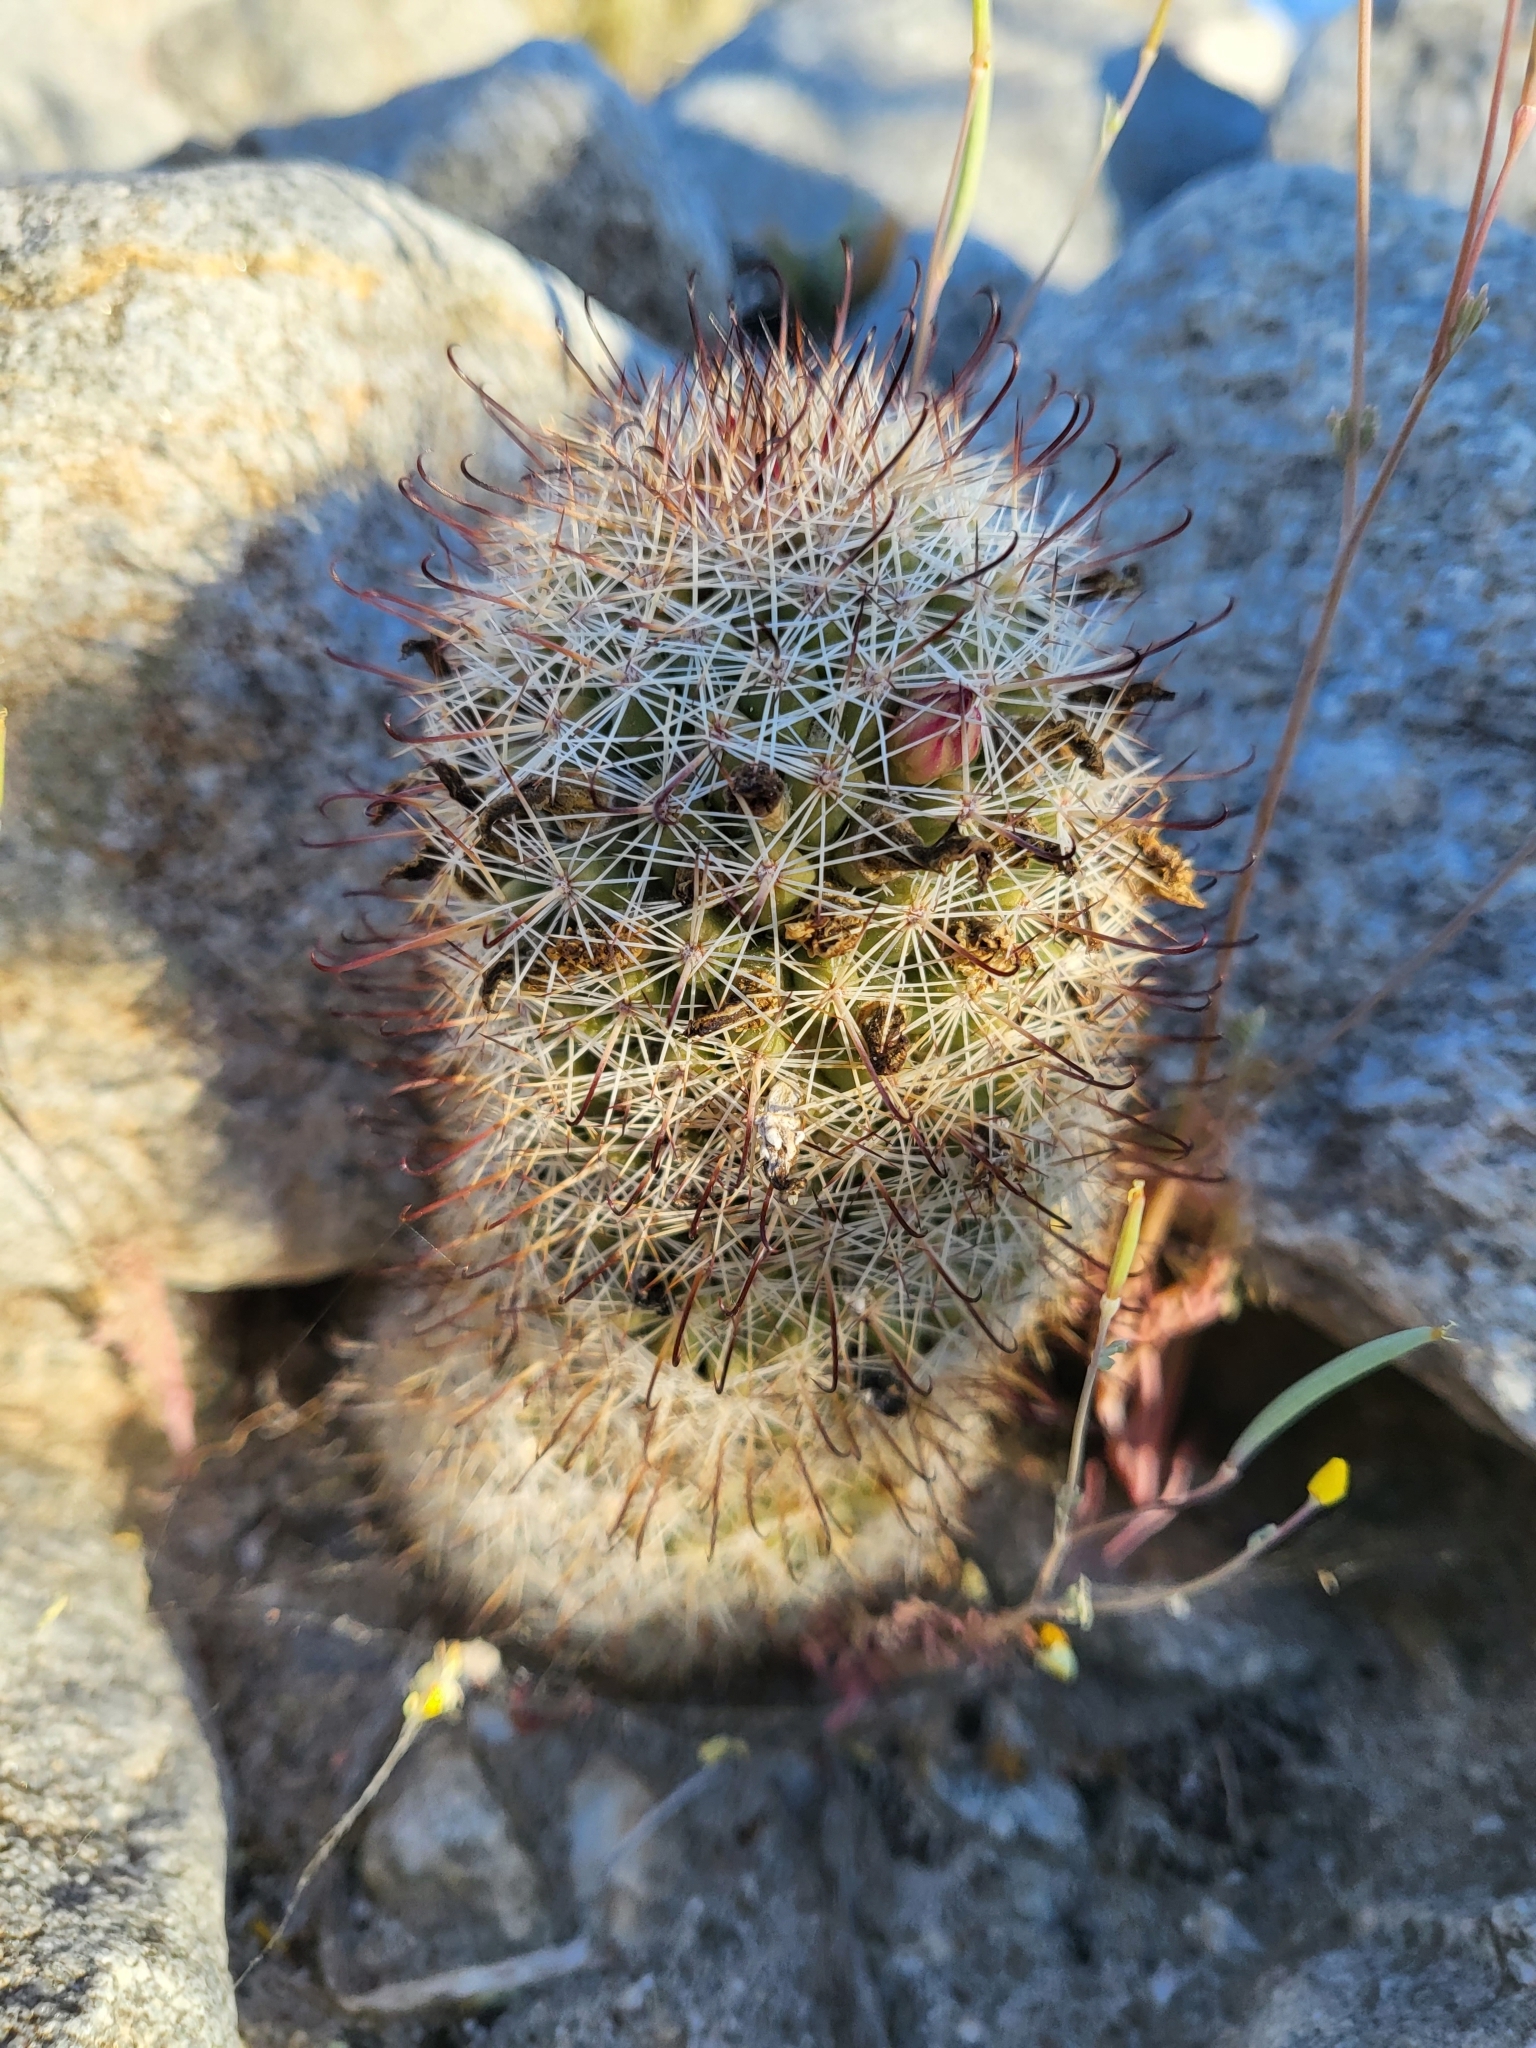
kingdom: Plantae
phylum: Tracheophyta
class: Magnoliopsida
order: Caryophyllales
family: Cactaceae
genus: Cochemiea
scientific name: Cochemiea dioica
